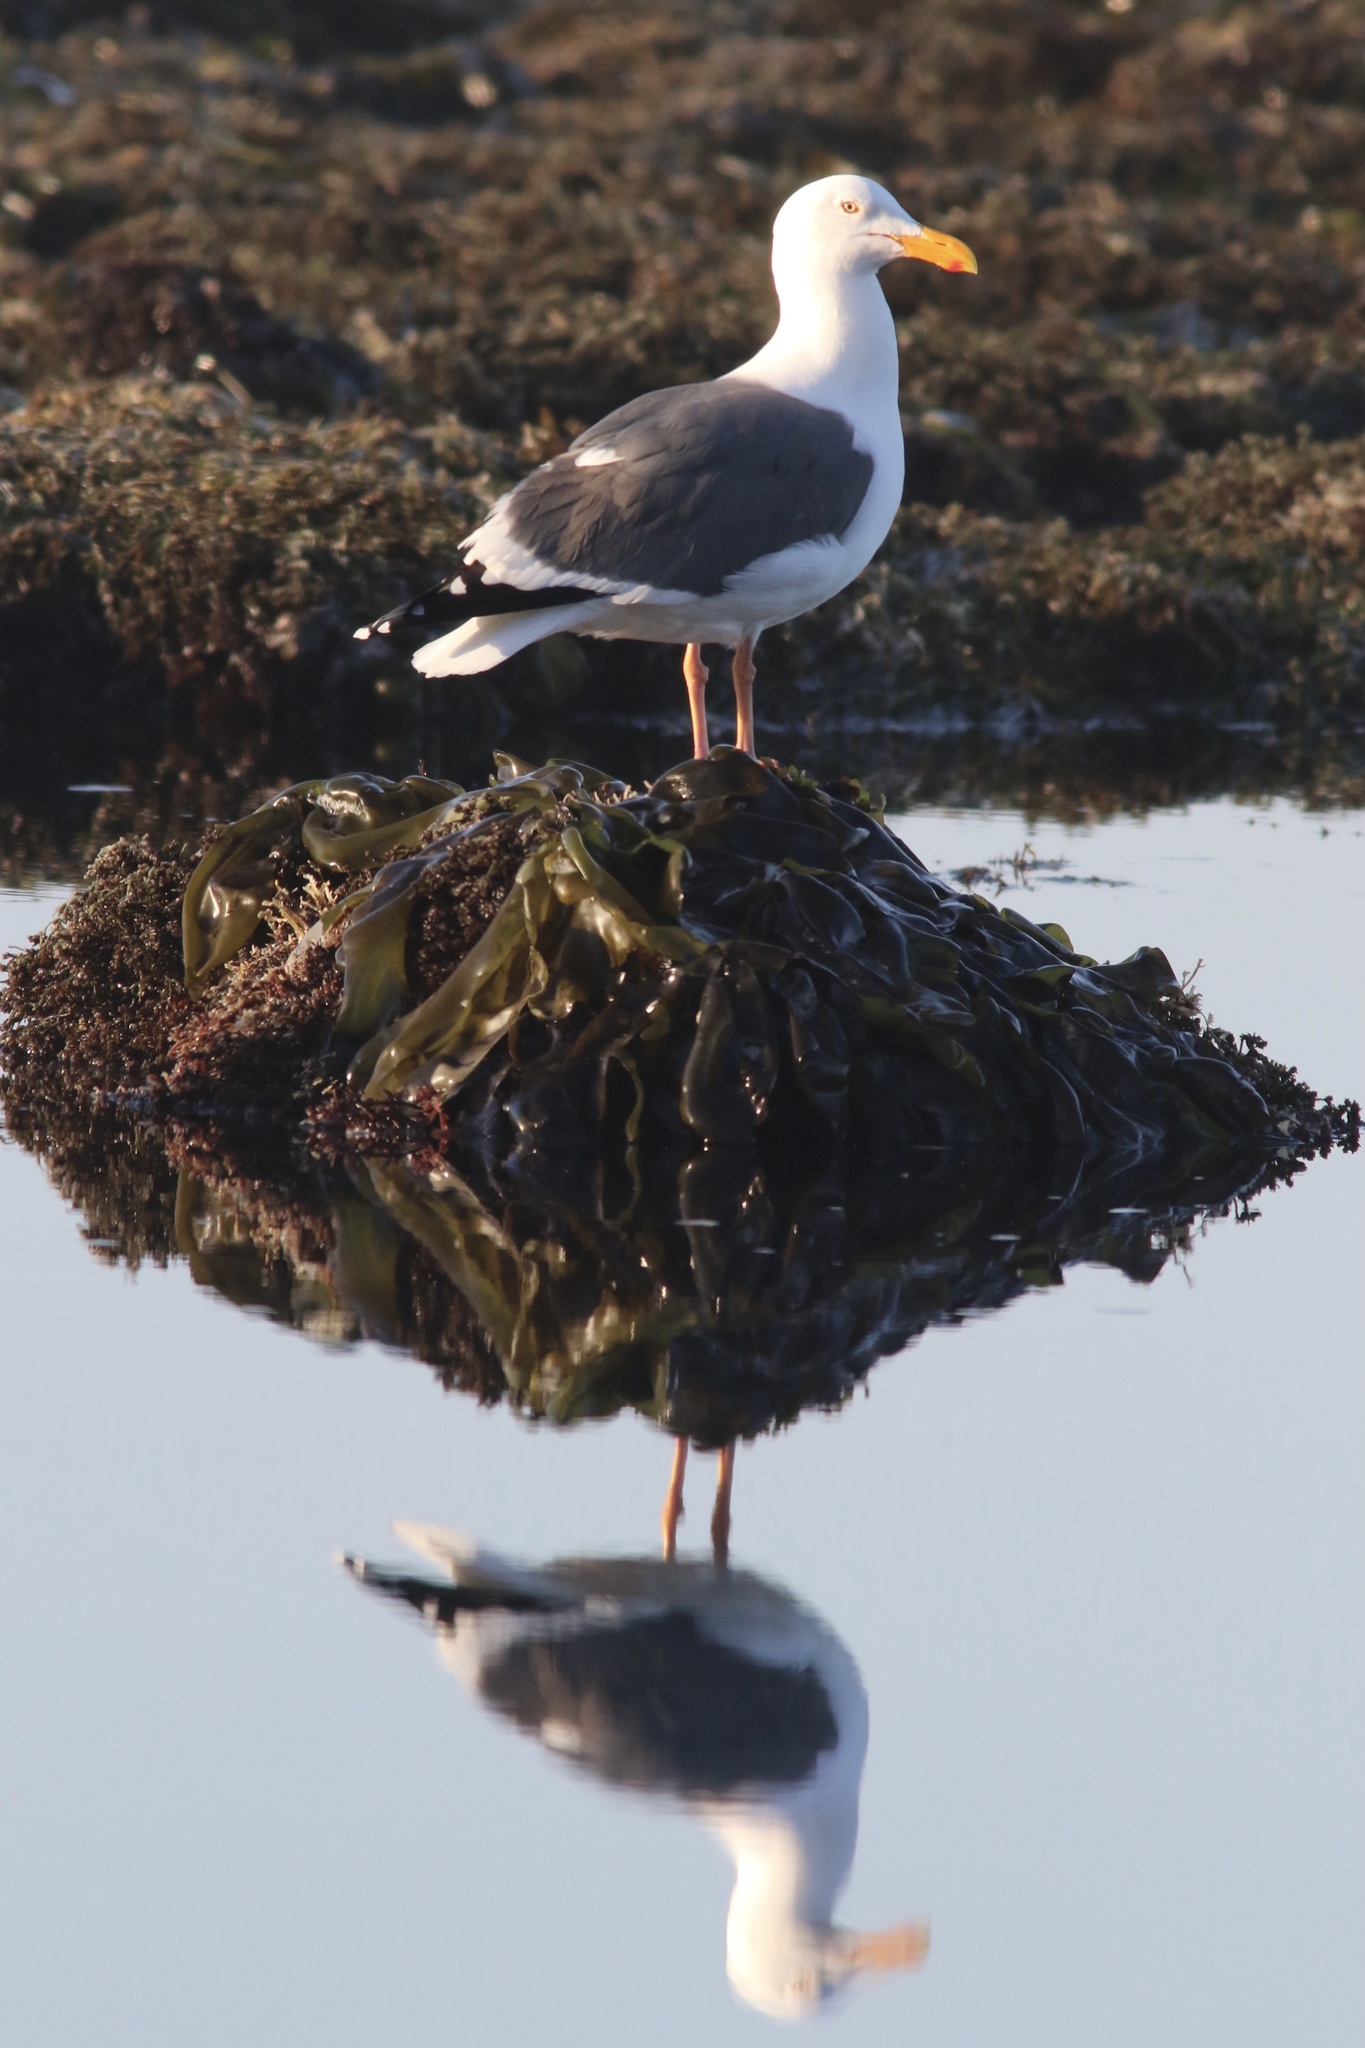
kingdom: Animalia
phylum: Chordata
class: Aves
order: Charadriiformes
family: Laridae
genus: Larus
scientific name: Larus occidentalis
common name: Western gull
